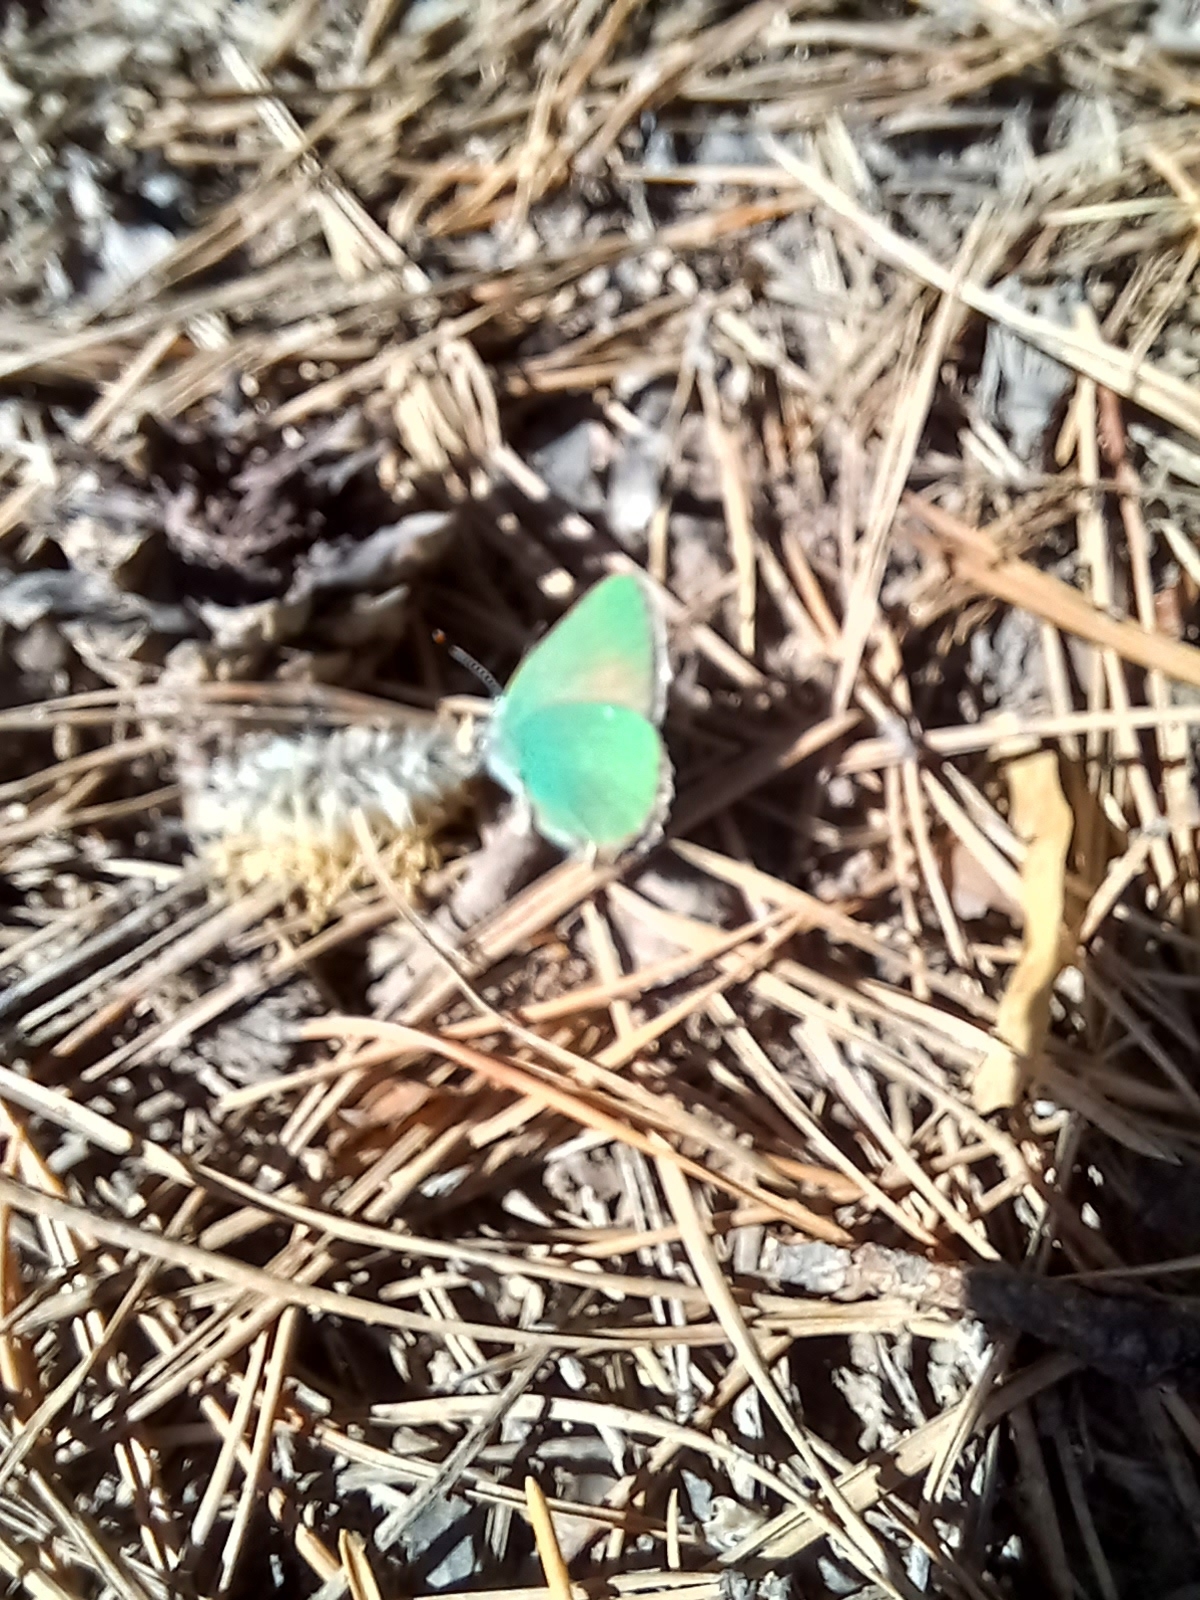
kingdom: Animalia
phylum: Arthropoda
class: Insecta
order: Lepidoptera
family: Lycaenidae
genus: Callophrys
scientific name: Callophrys rubi
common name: Green hairstreak
